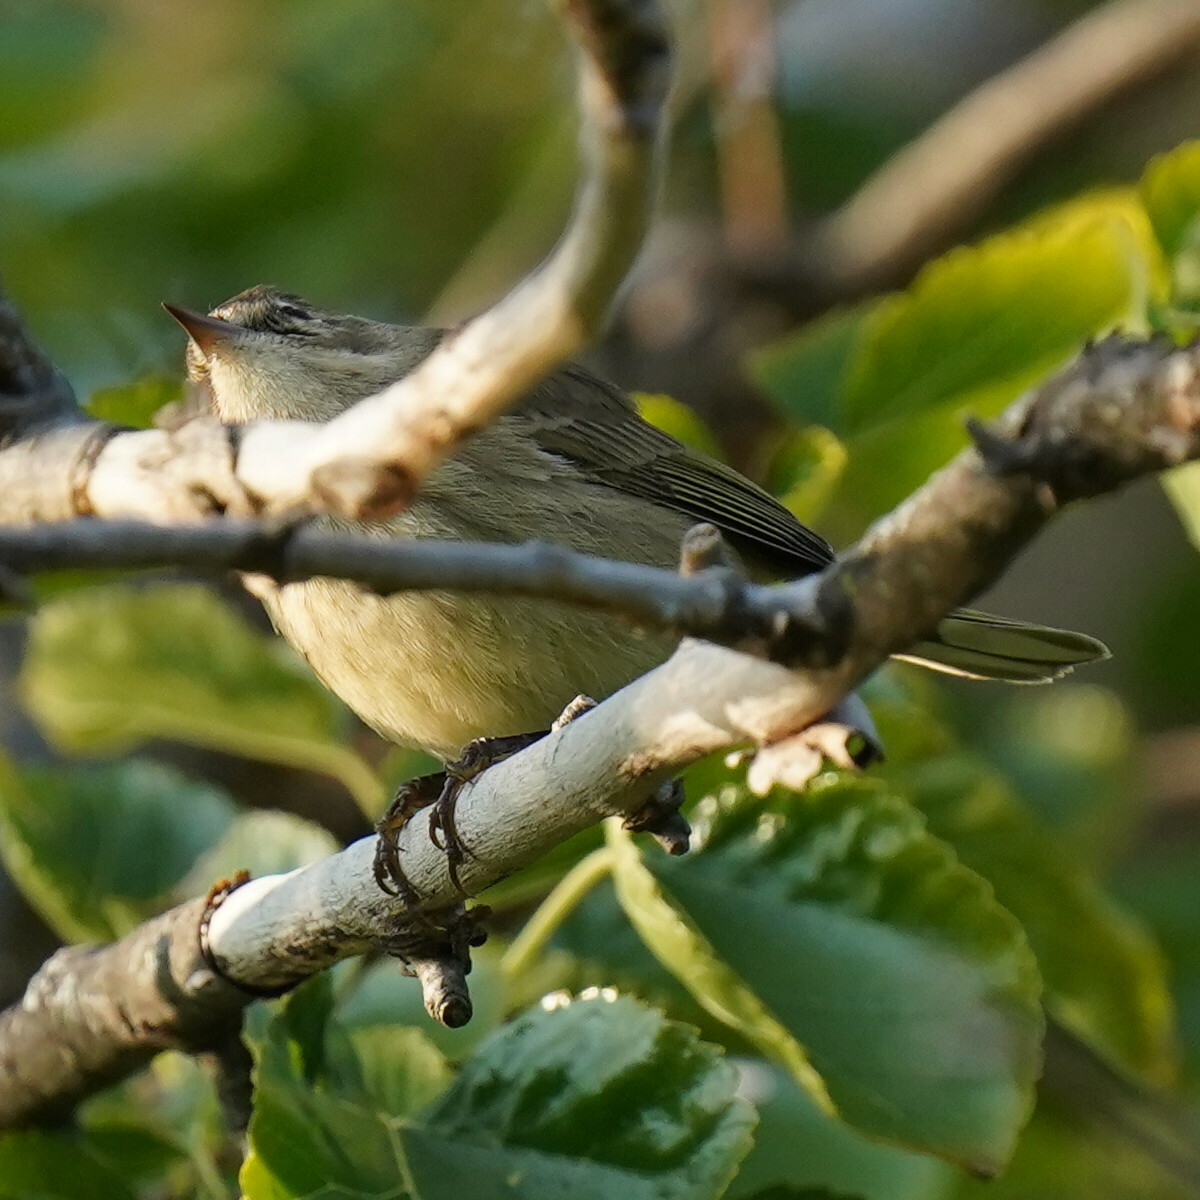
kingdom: Animalia
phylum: Chordata
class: Aves
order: Passeriformes
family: Parulidae
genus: Setophaga
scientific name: Setophaga palmarum
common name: Palm warbler
